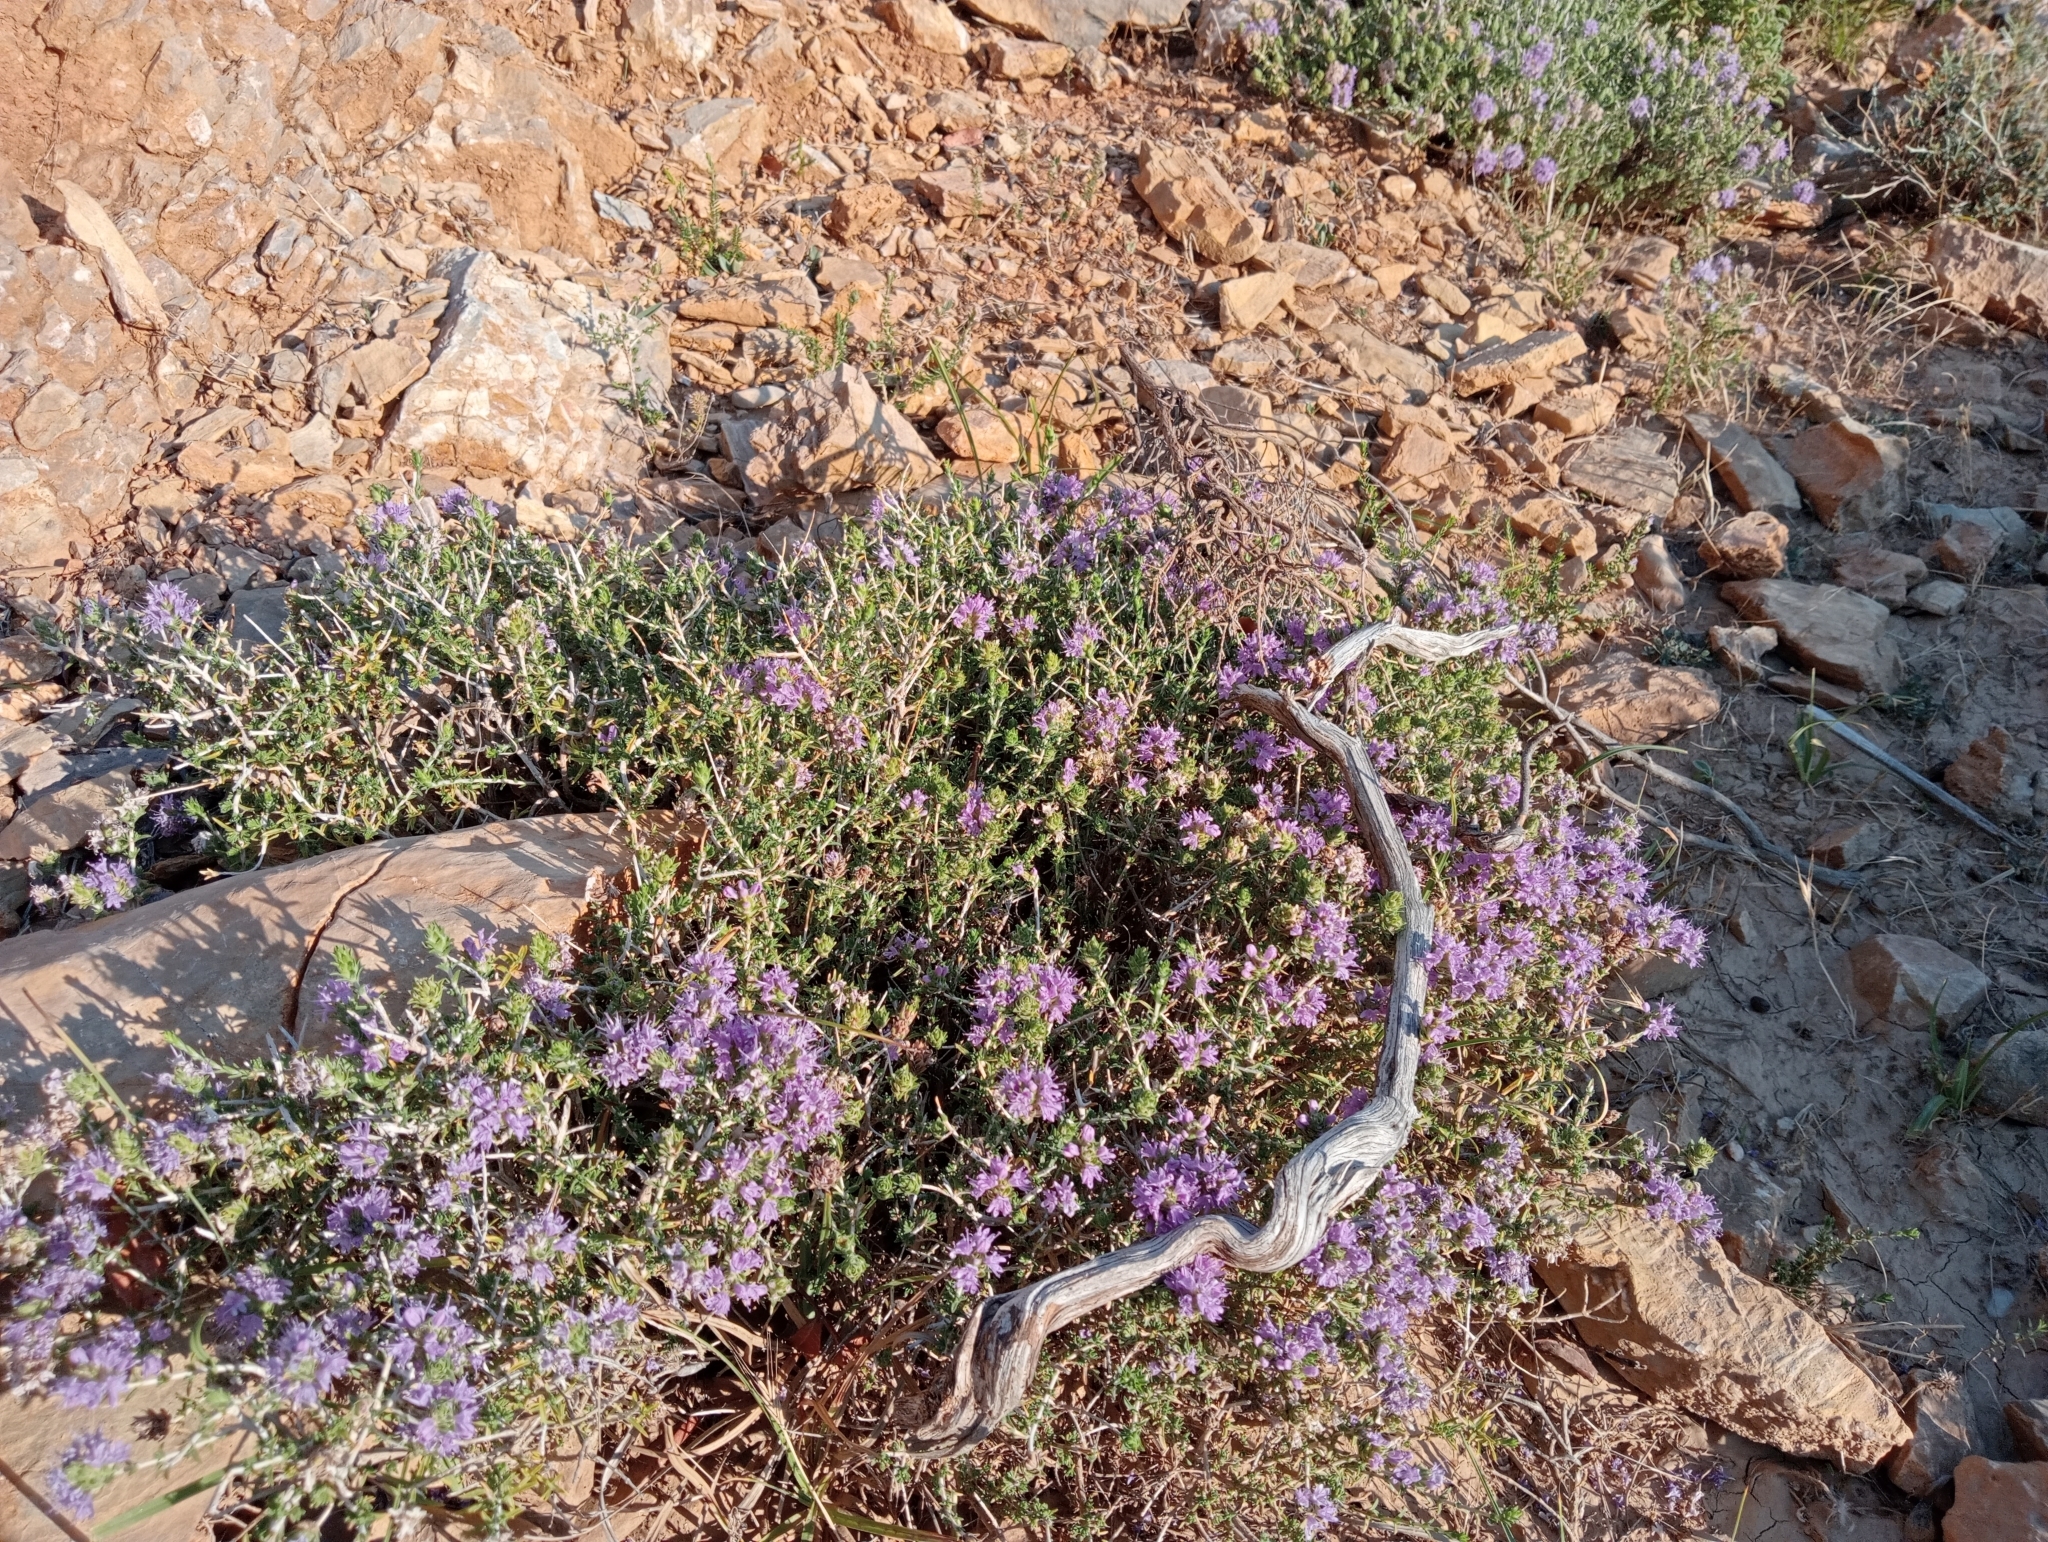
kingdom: Plantae
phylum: Tracheophyta
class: Magnoliopsida
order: Lamiales
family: Lamiaceae
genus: Thymbra
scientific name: Thymbra capitata
